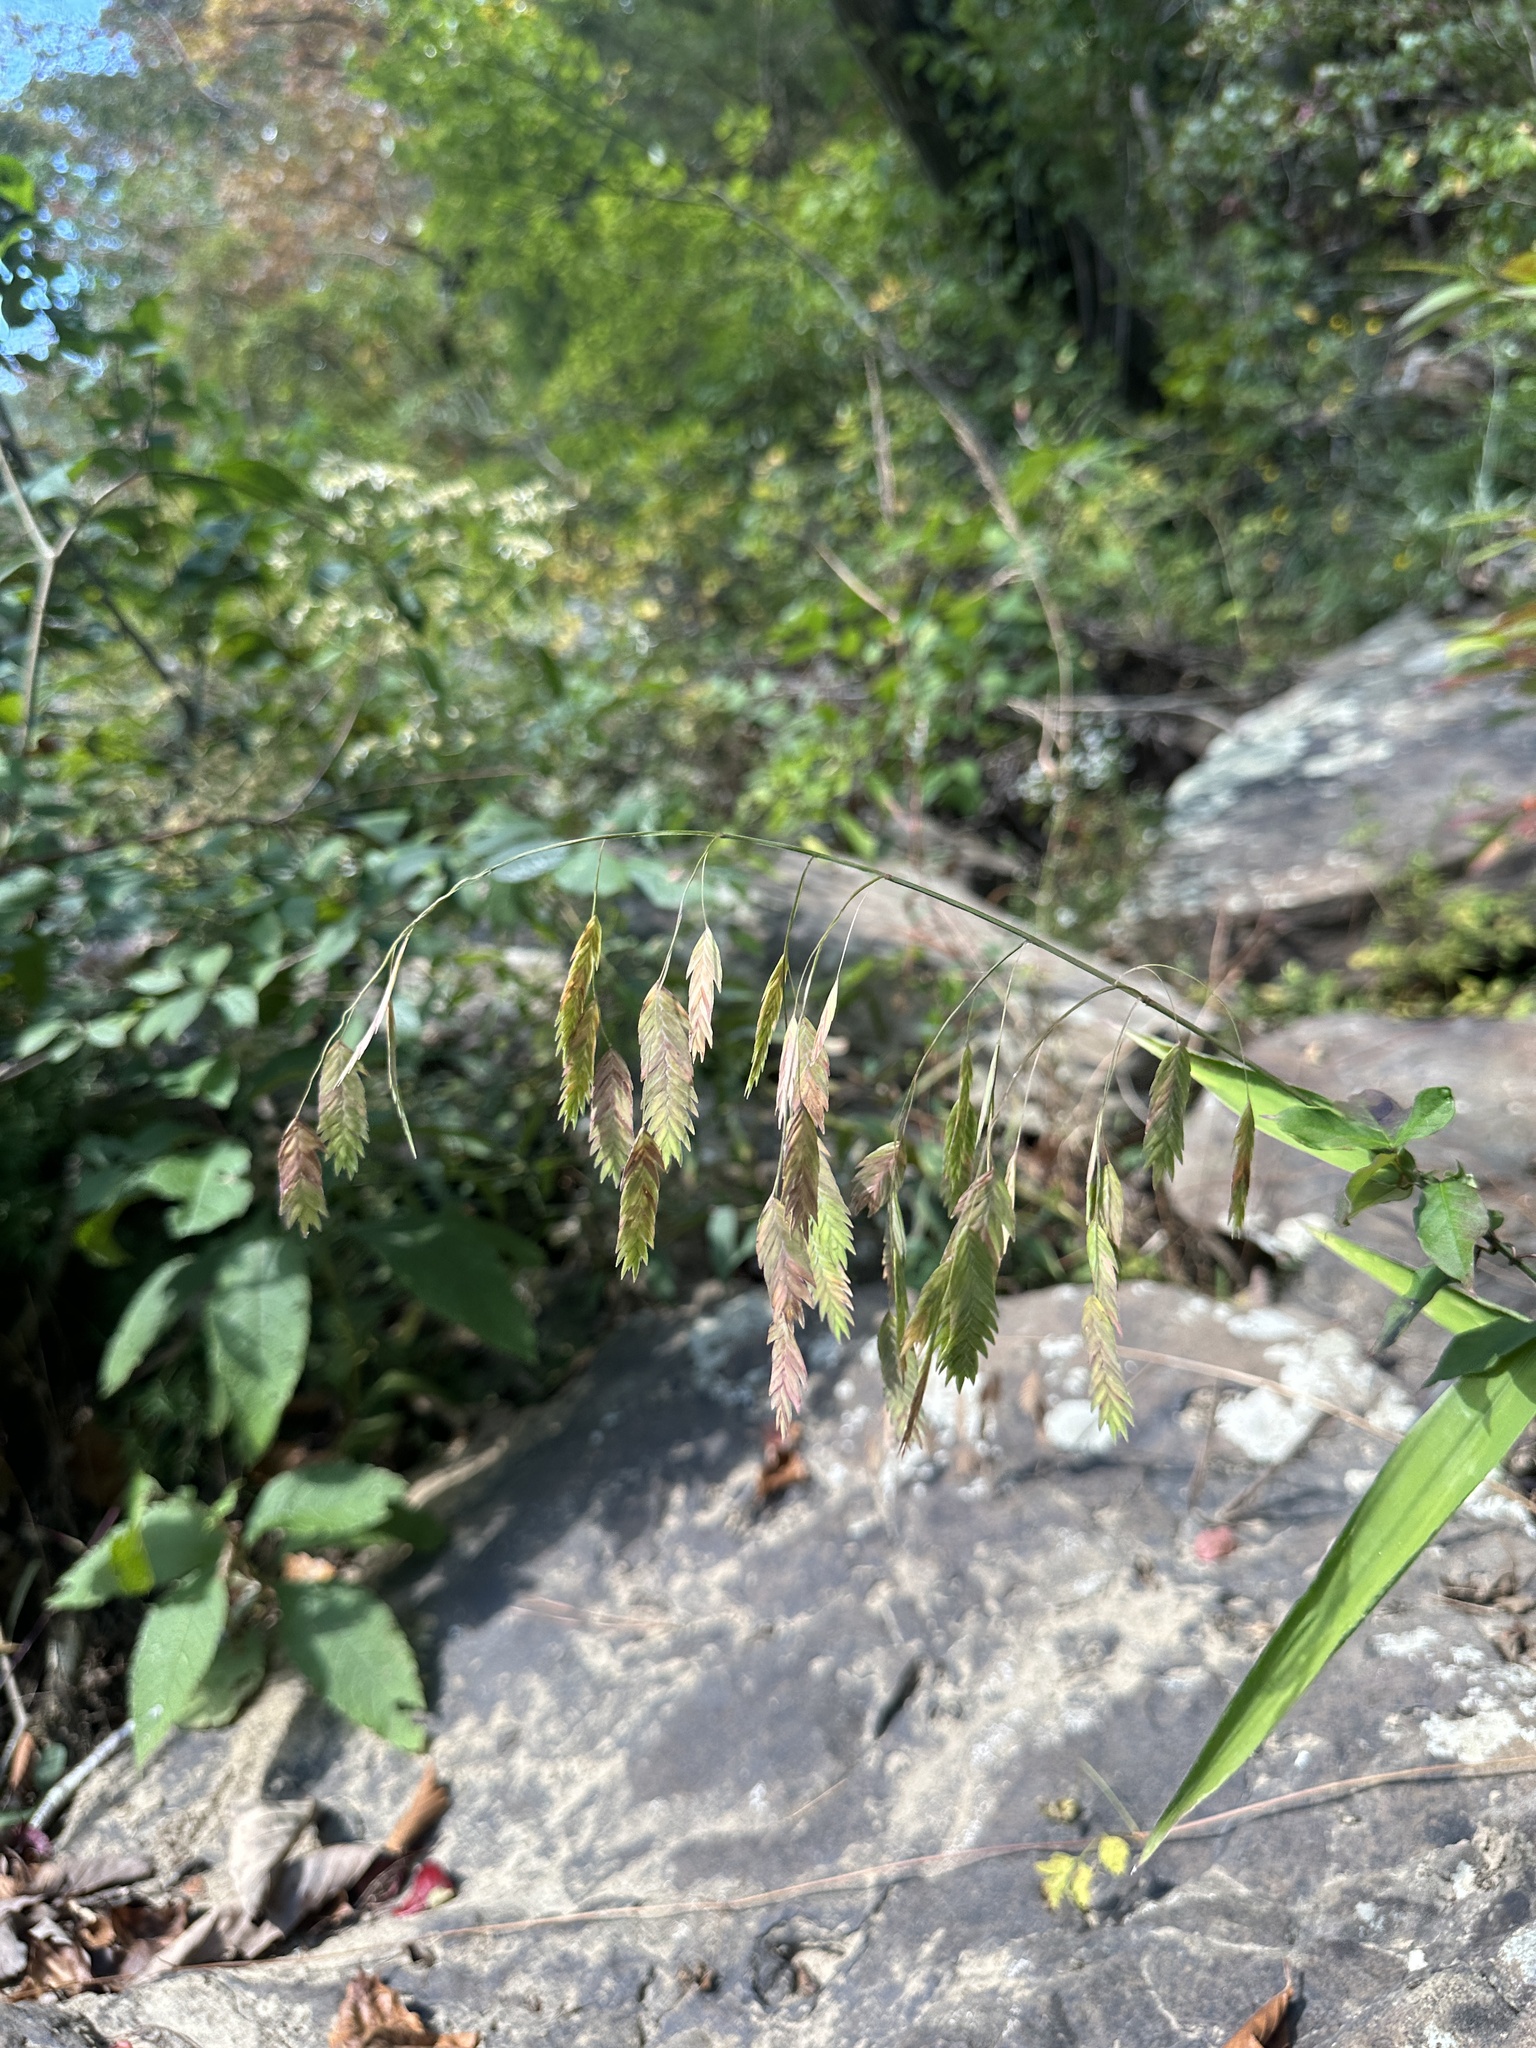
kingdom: Plantae
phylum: Tracheophyta
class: Liliopsida
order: Poales
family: Poaceae
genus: Chasmanthium
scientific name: Chasmanthium latifolium
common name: Broad-leaved chasmanthium
